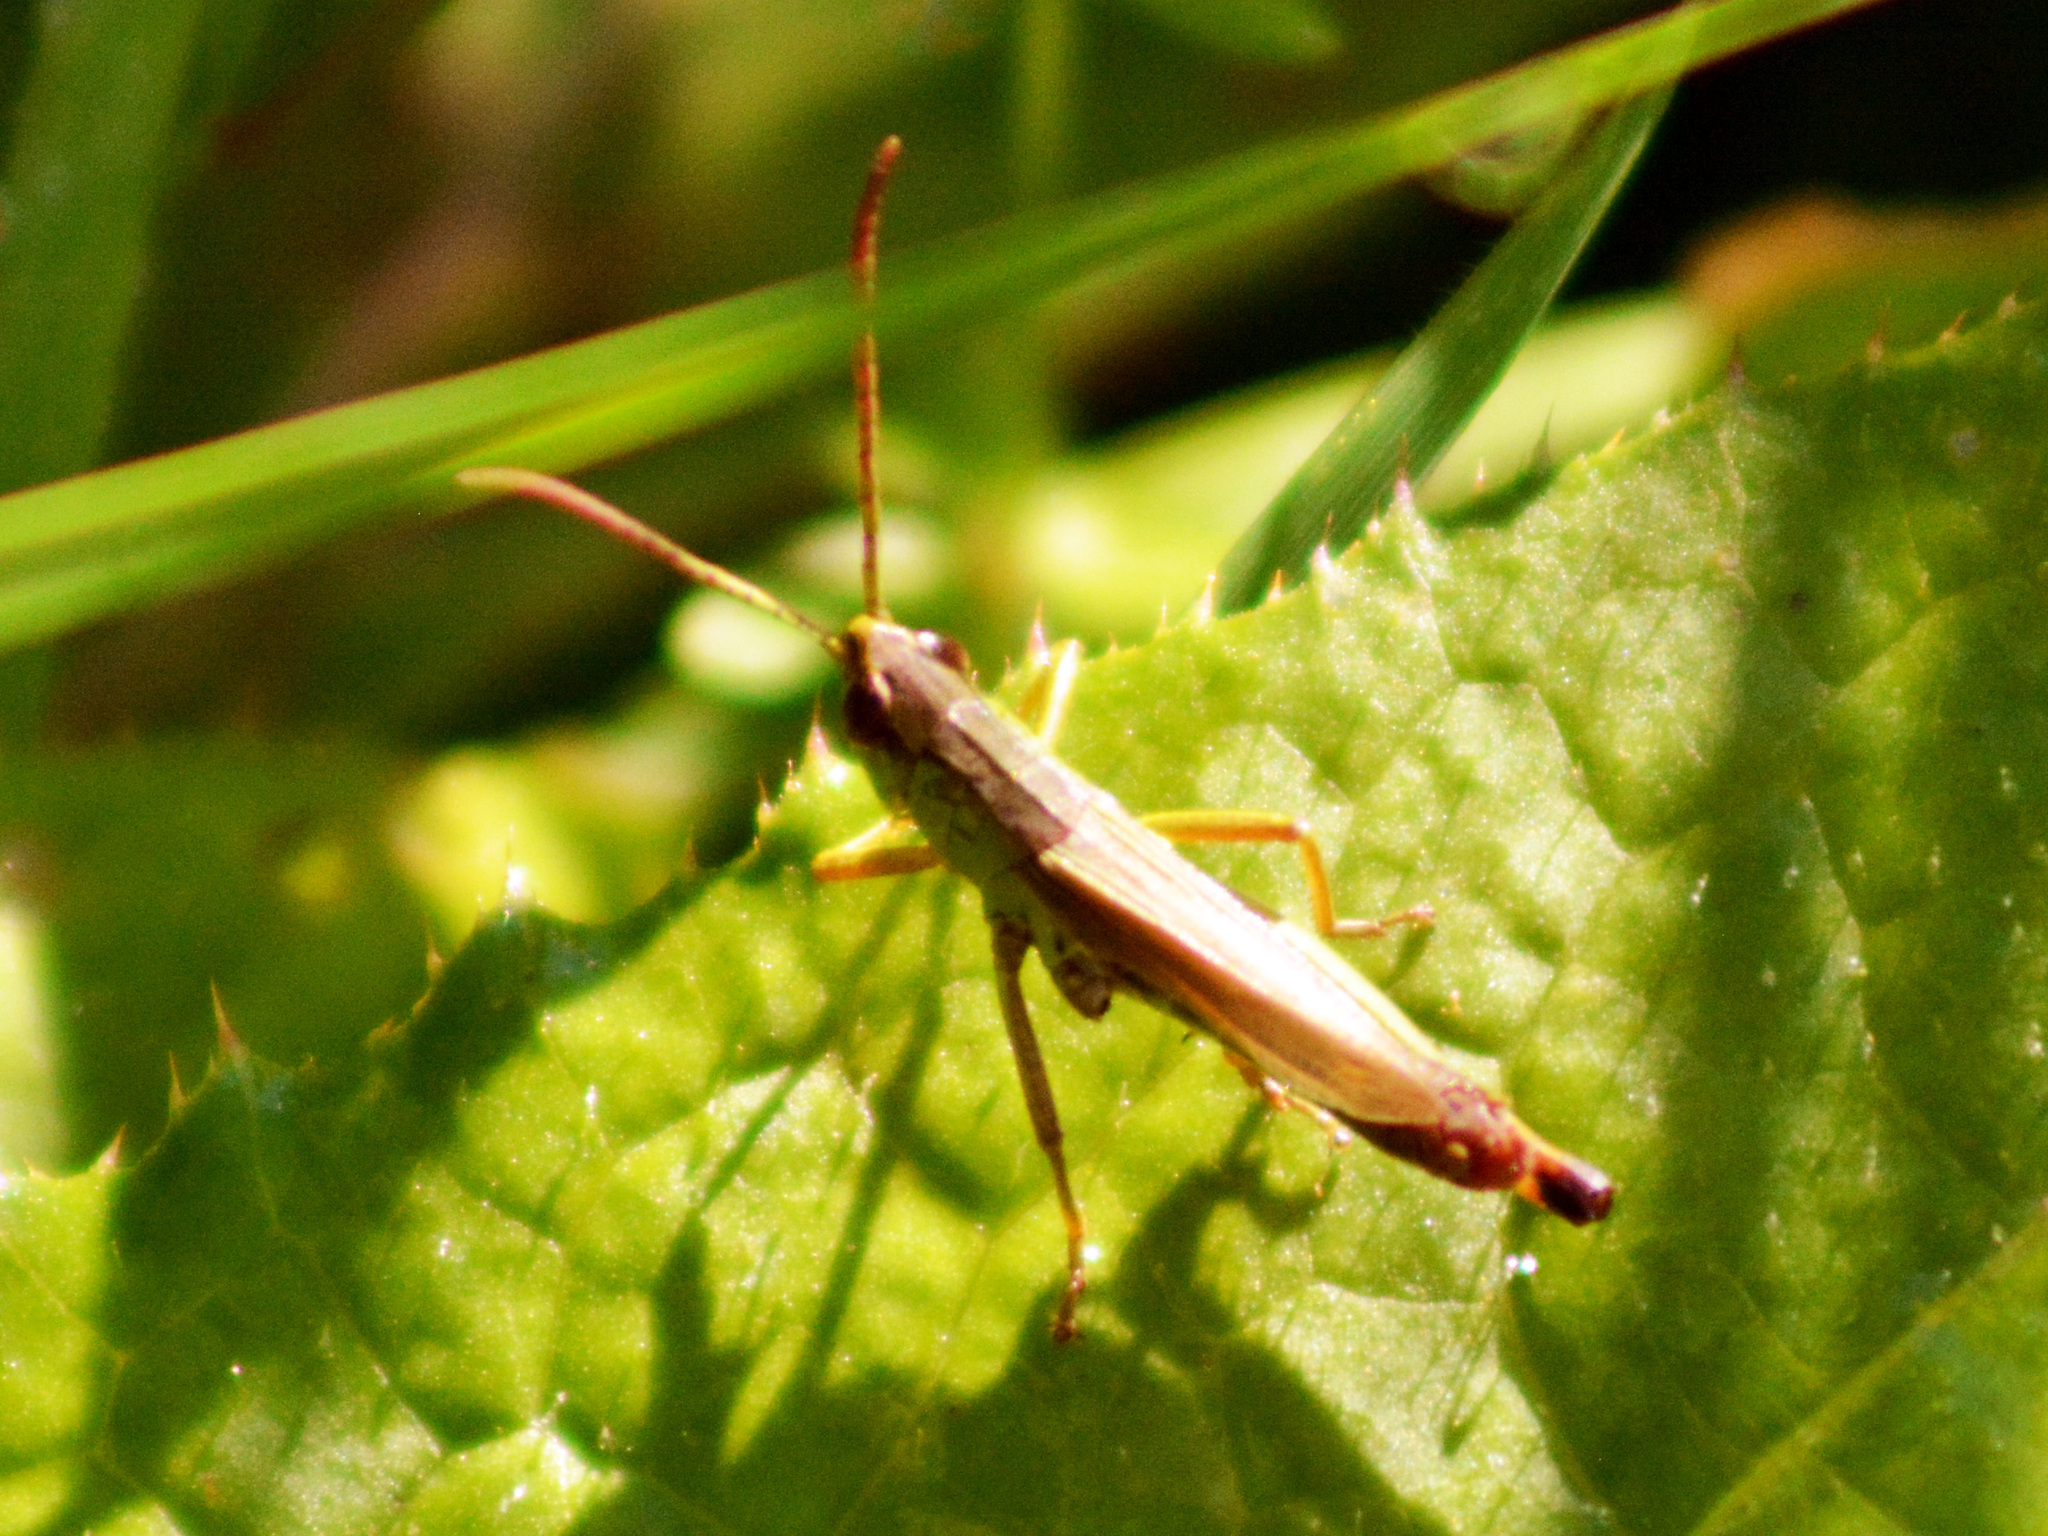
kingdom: Animalia
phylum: Arthropoda
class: Insecta
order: Orthoptera
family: Acrididae
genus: Pseudochorthippus
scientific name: Pseudochorthippus parallelus
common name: Meadow grasshopper
